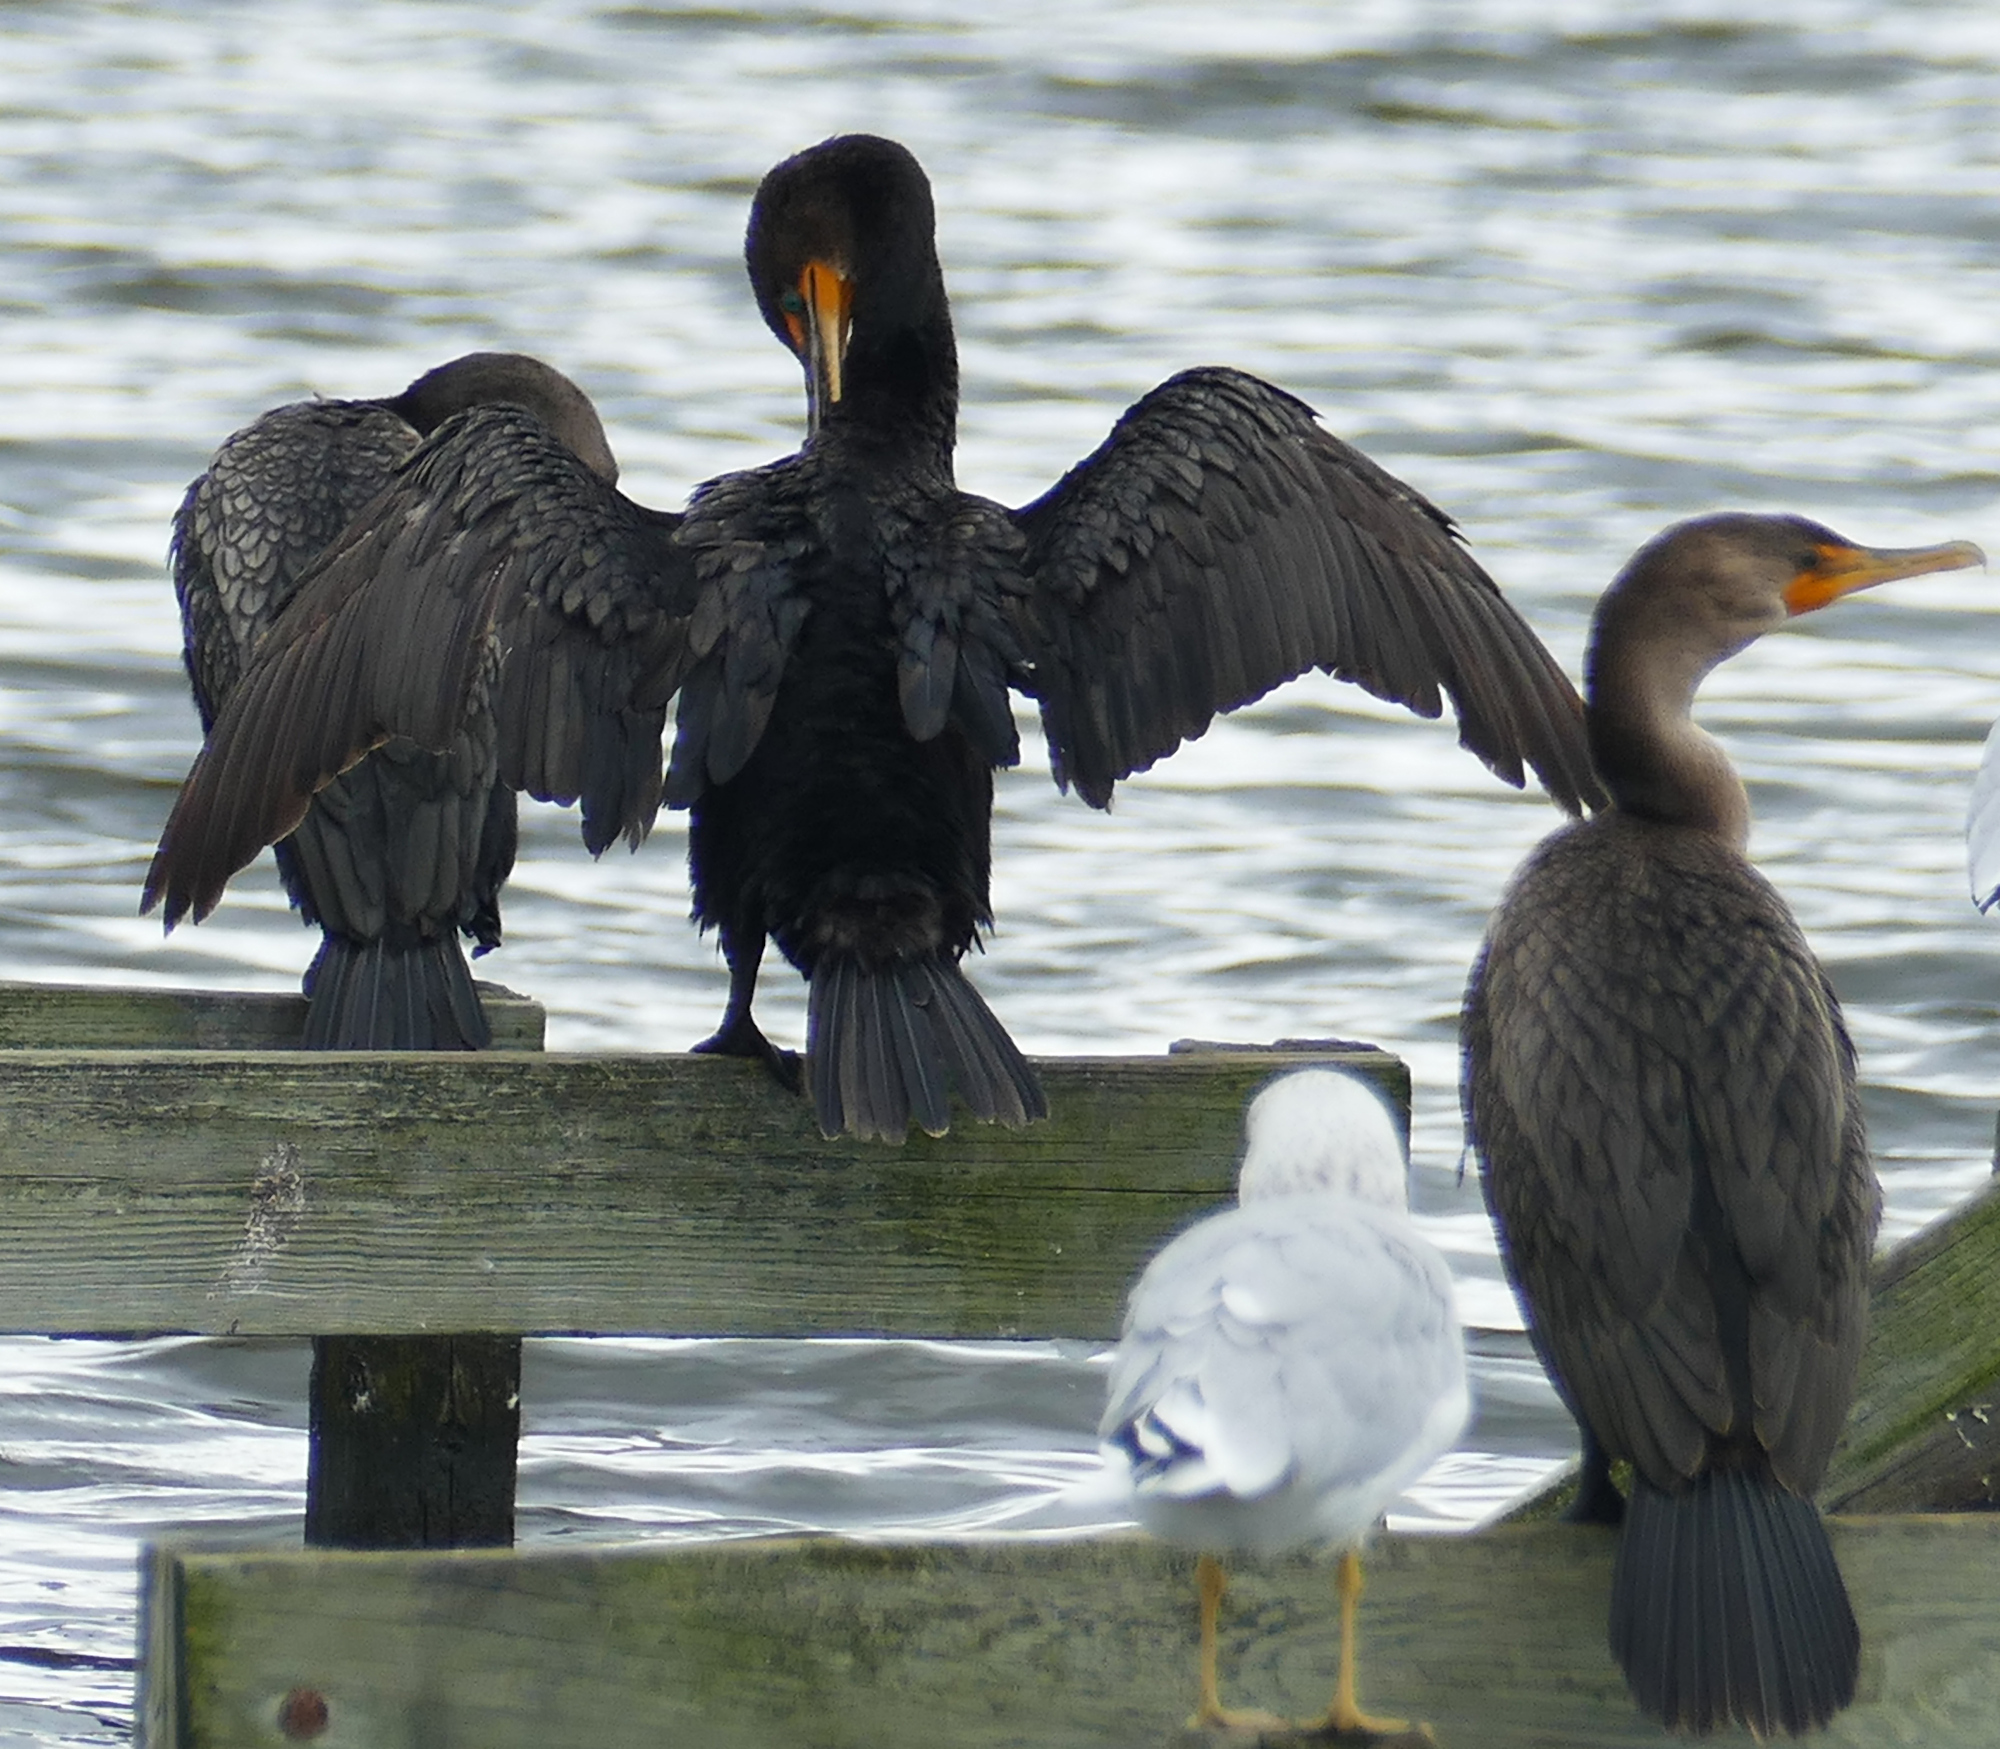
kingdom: Animalia
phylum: Chordata
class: Aves
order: Suliformes
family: Phalacrocoracidae
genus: Phalacrocorax
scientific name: Phalacrocorax auritus
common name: Double-crested cormorant
